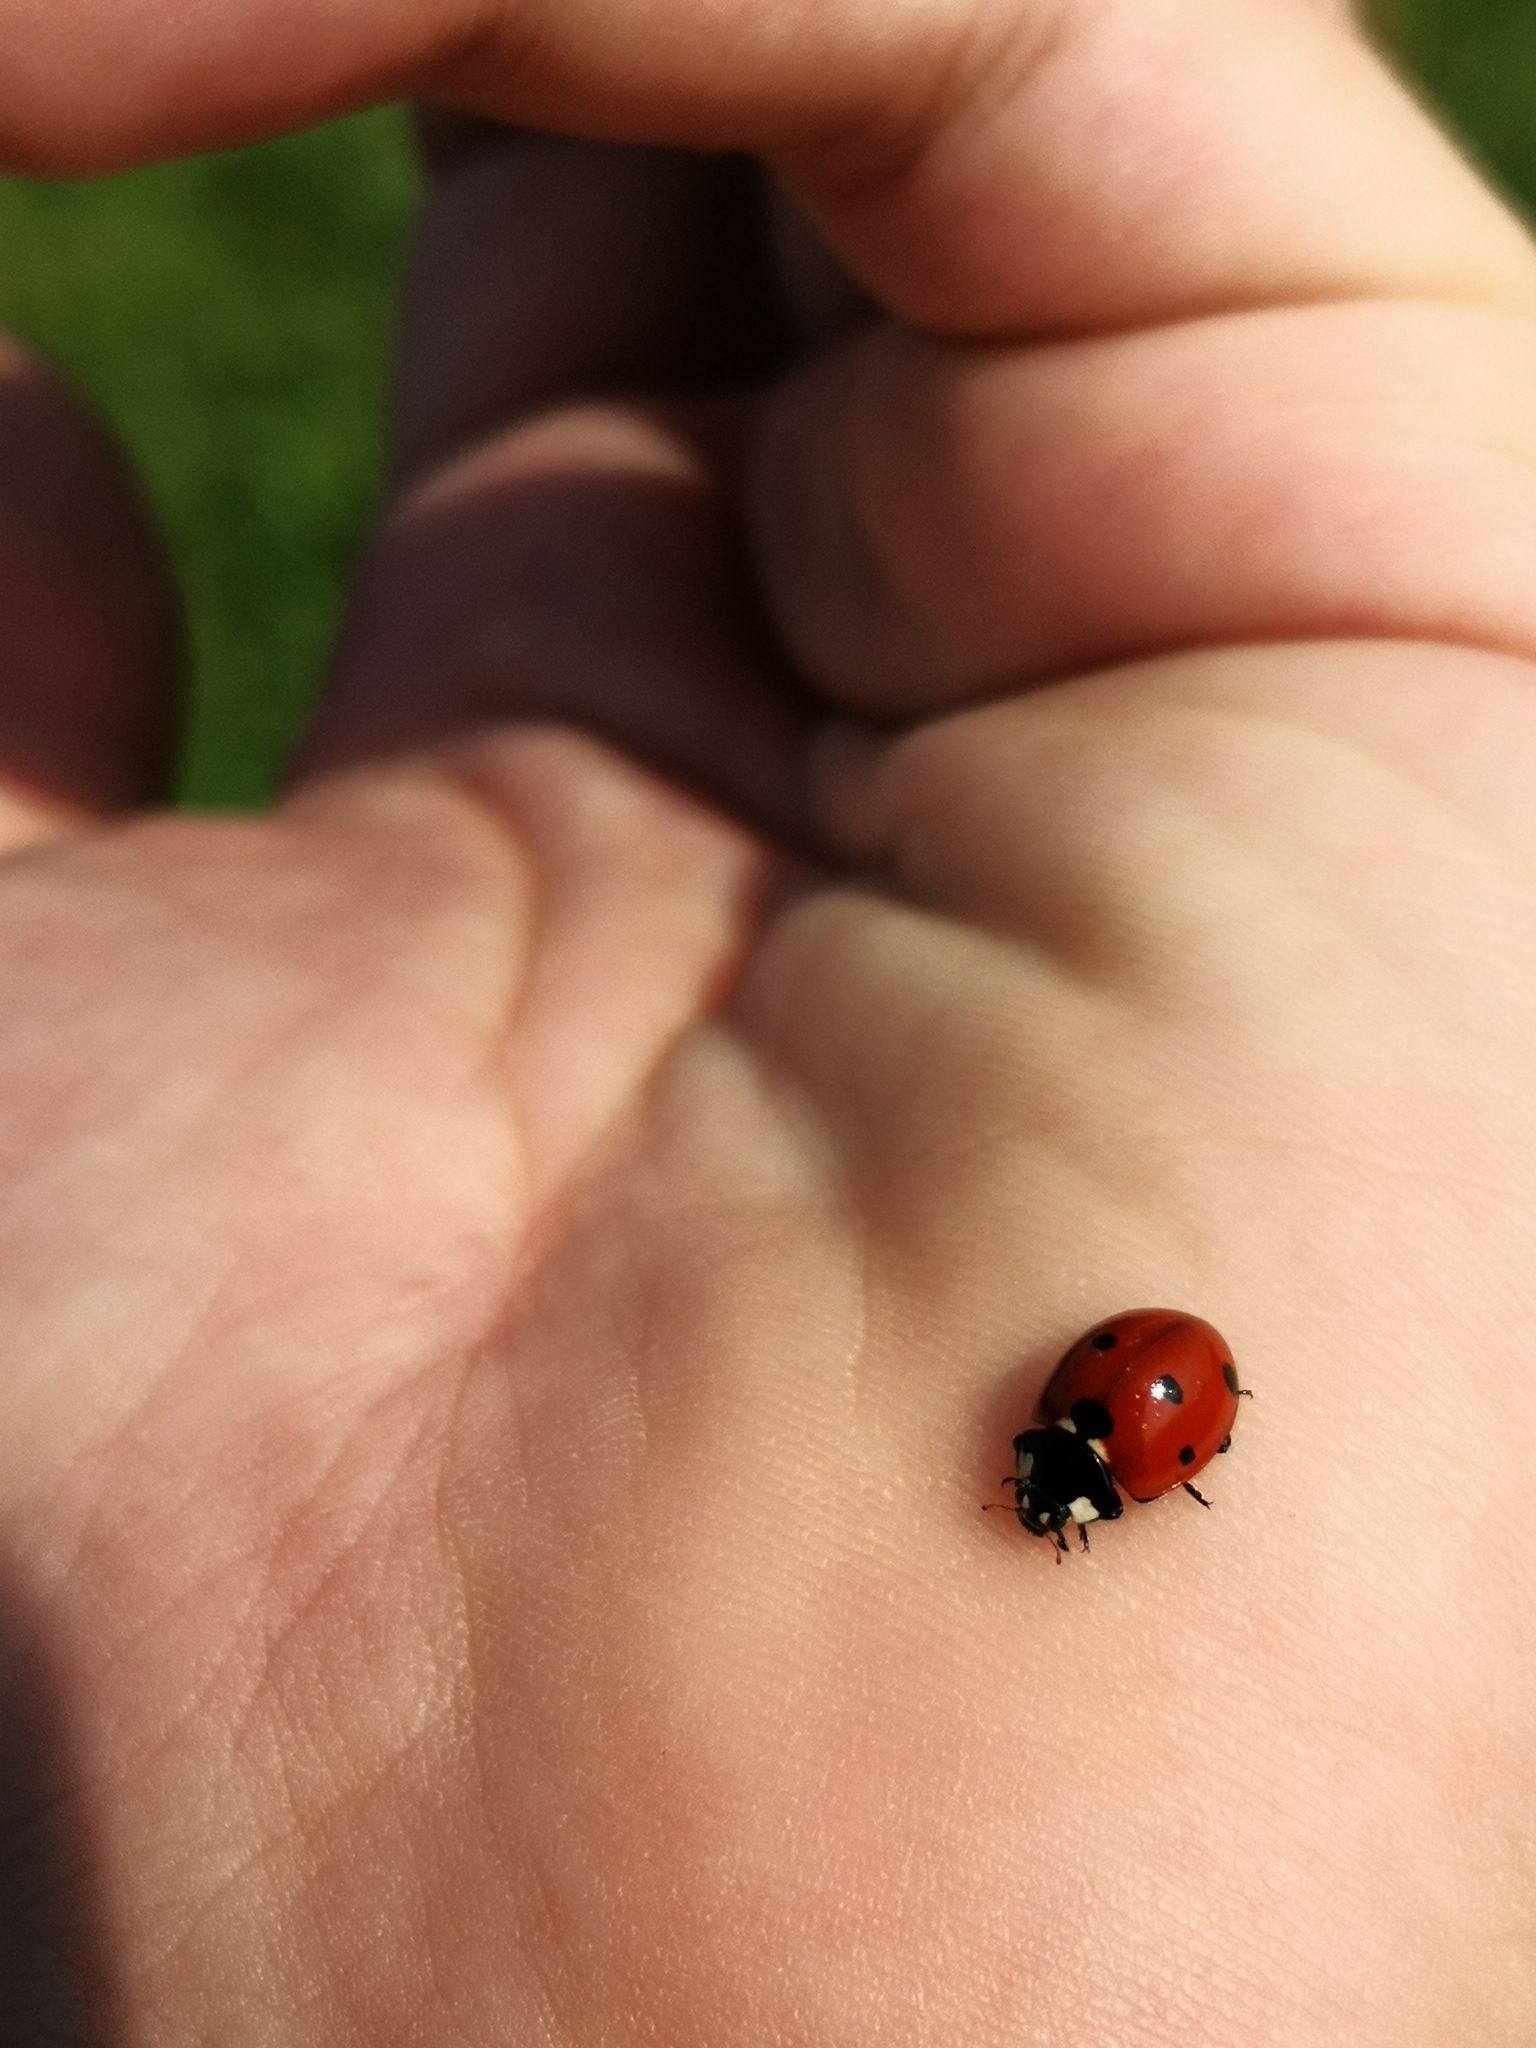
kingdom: Animalia
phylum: Arthropoda
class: Insecta
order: Coleoptera
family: Coccinellidae
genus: Coccinella
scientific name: Coccinella septempunctata
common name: Sevenspotted lady beetle
